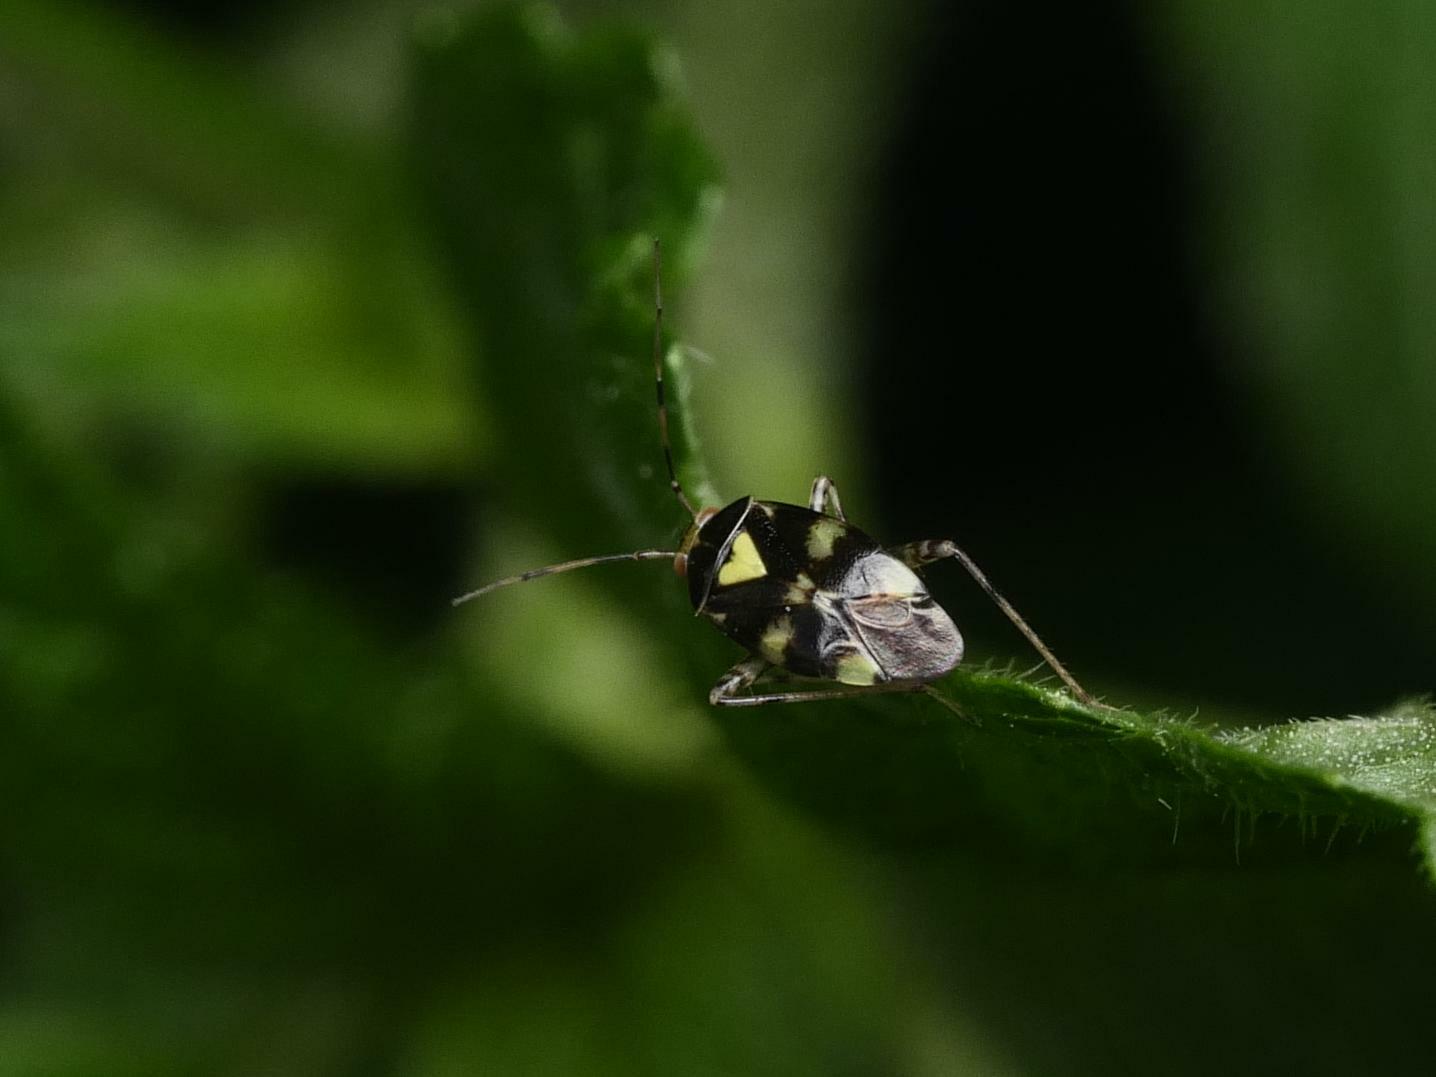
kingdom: Animalia
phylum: Arthropoda
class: Insecta
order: Hemiptera
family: Miridae
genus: Liocoris
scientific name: Liocoris tripustulatus
